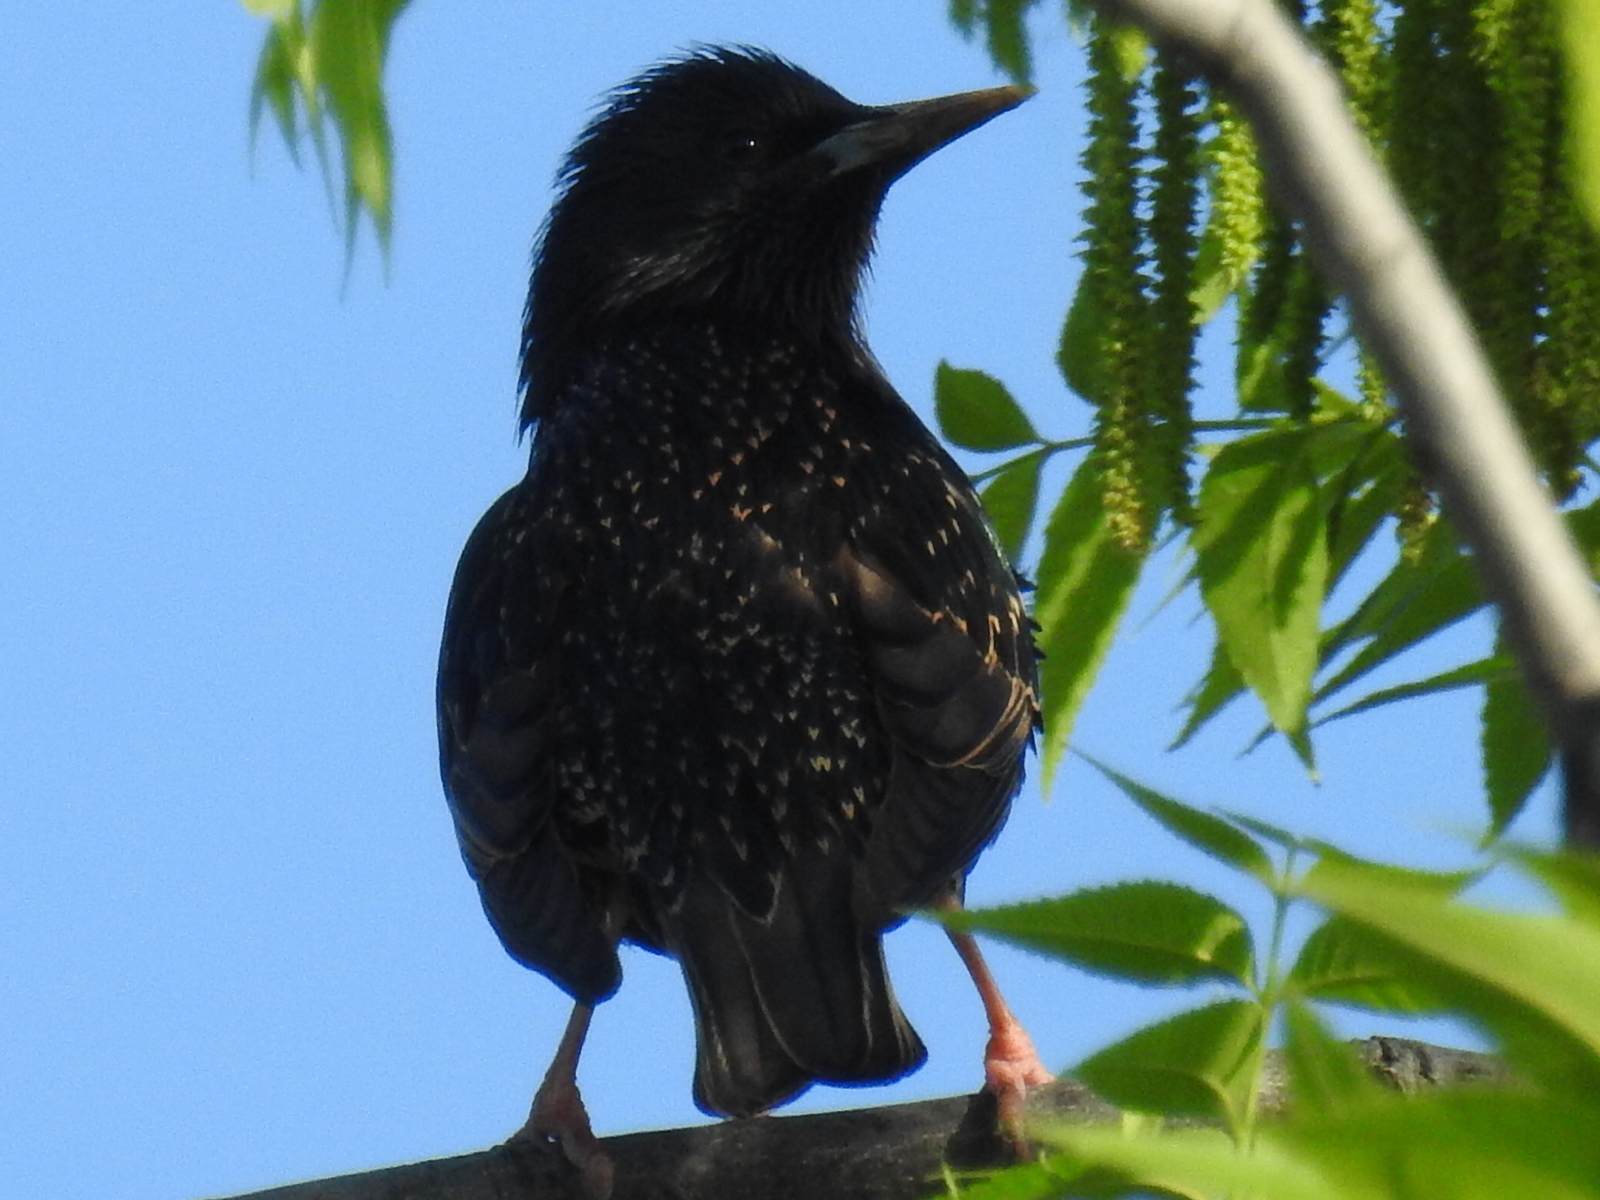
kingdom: Animalia
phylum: Chordata
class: Aves
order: Passeriformes
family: Sturnidae
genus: Sturnus
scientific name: Sturnus vulgaris
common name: Common starling
